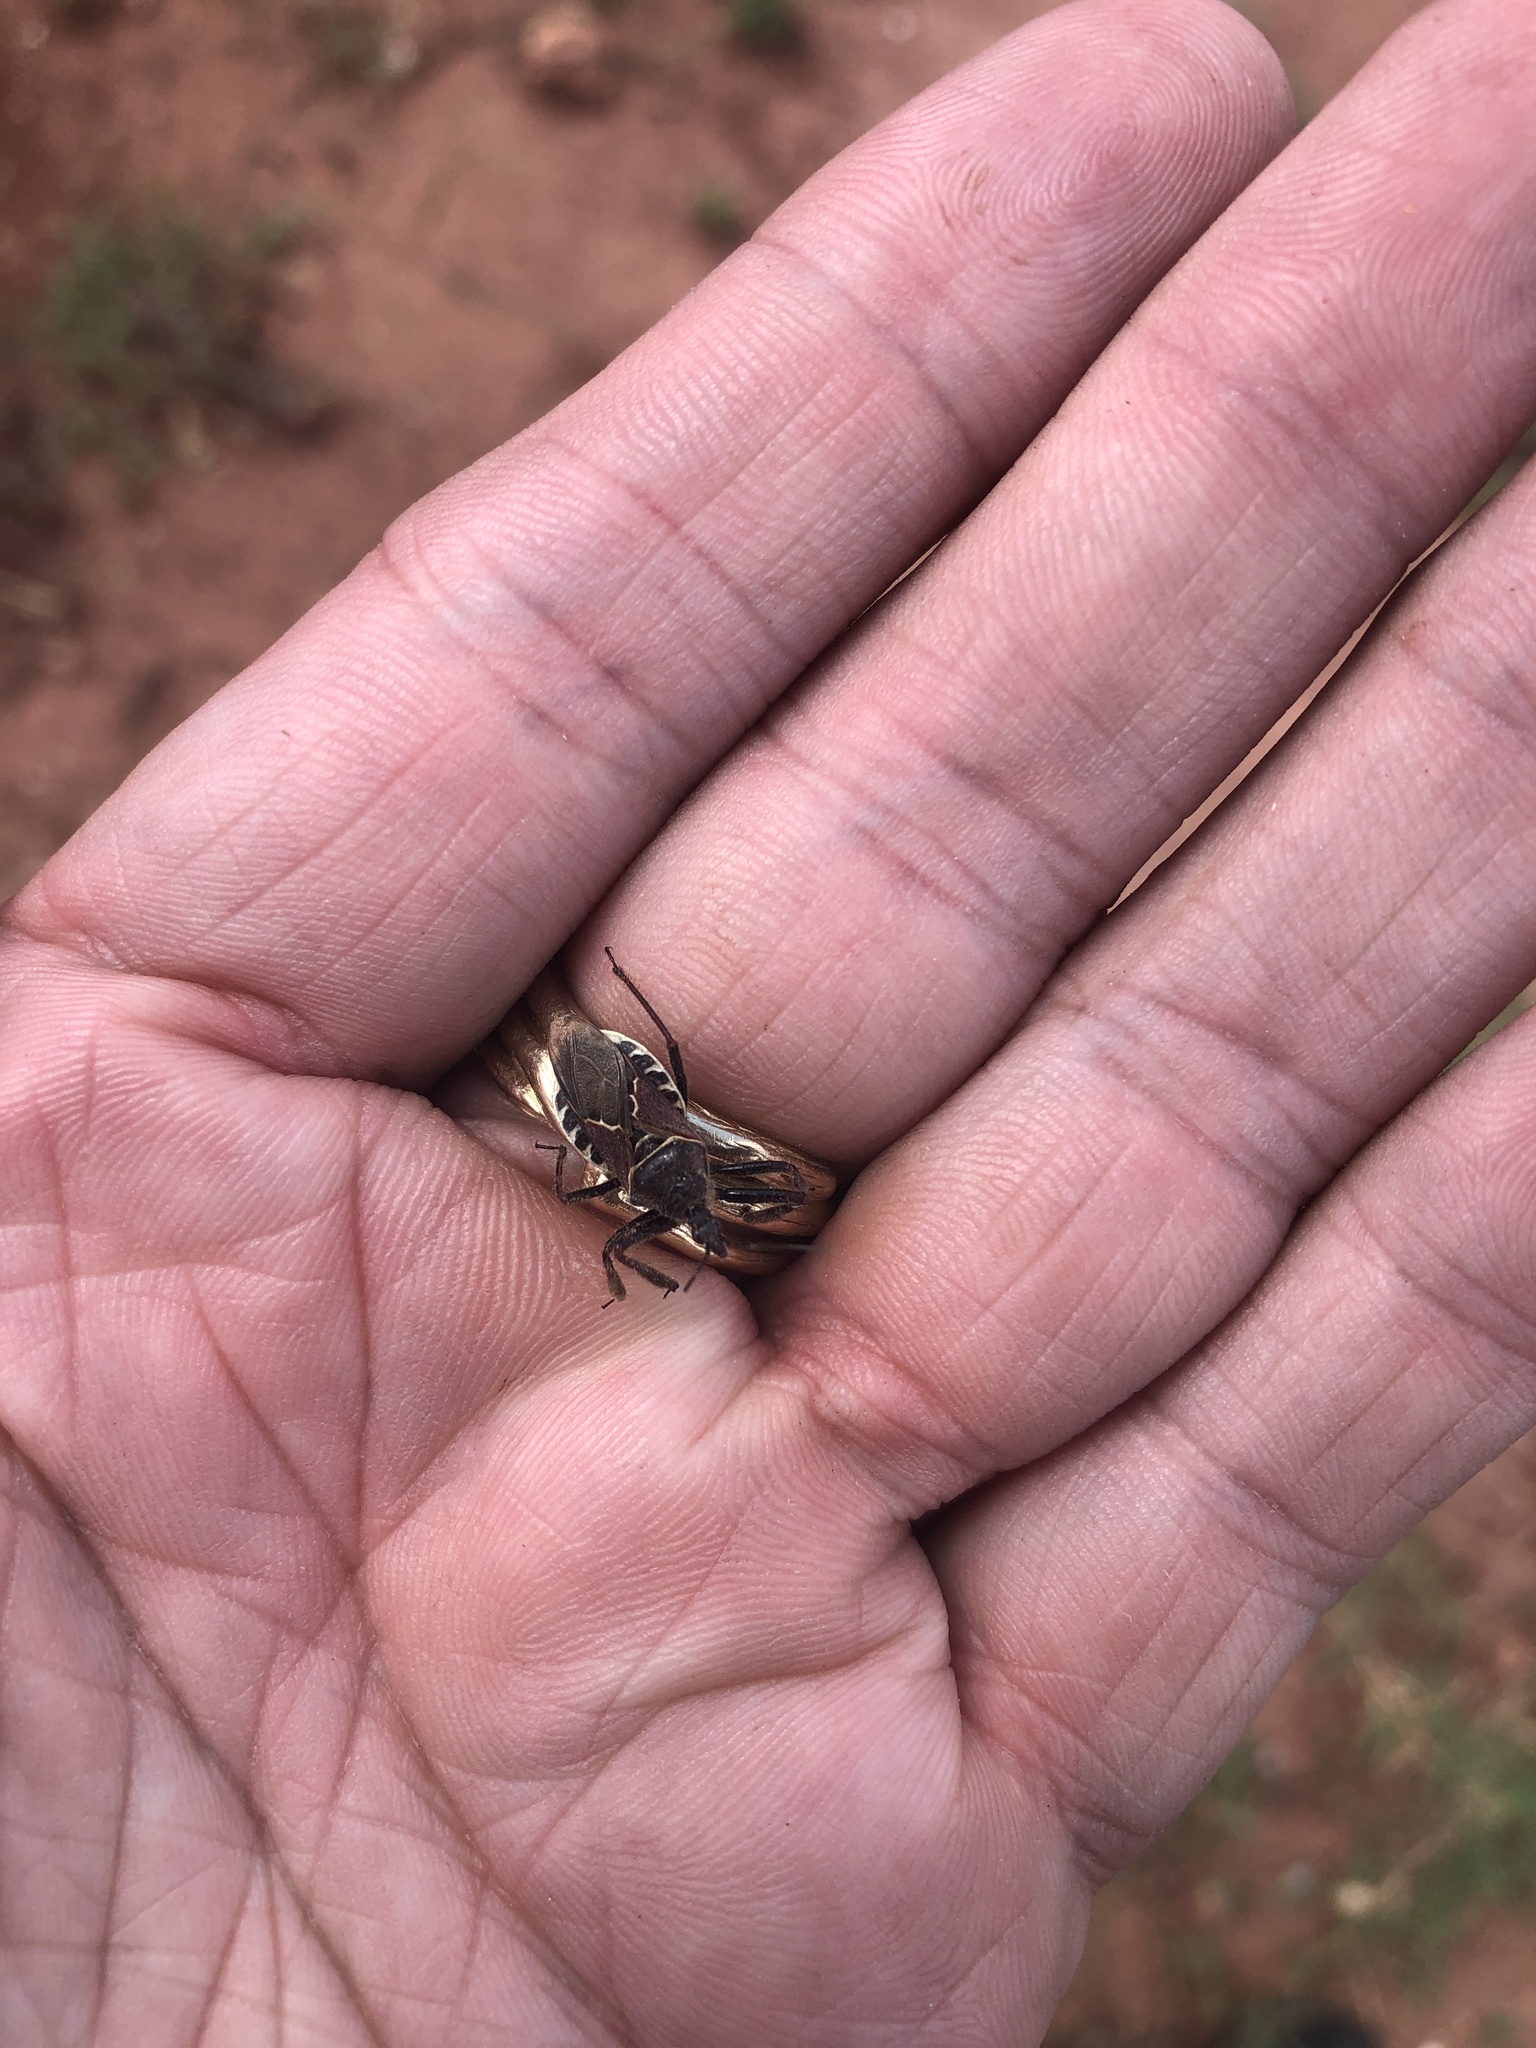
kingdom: Animalia
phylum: Arthropoda
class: Insecta
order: Hemiptera
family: Reduviidae
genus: Apiomerus
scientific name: Apiomerus spissipes
